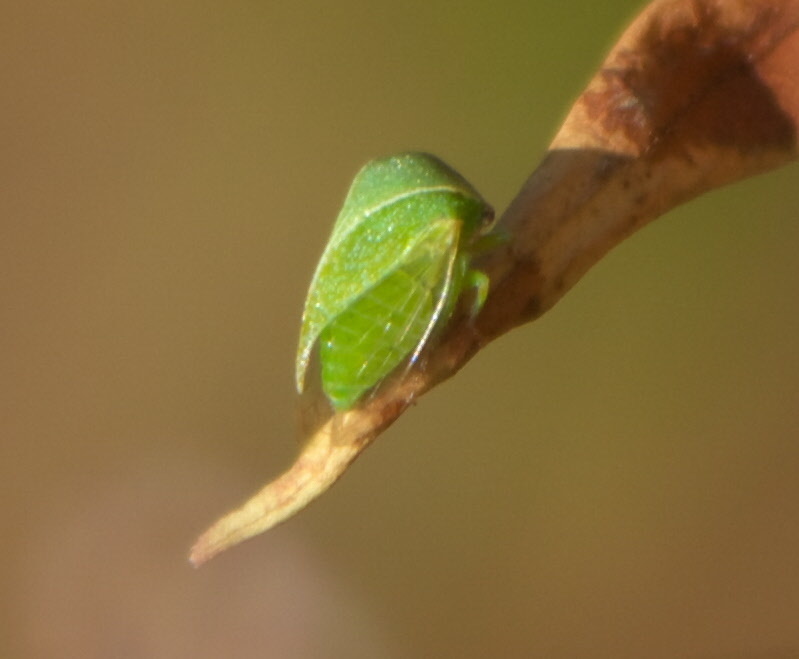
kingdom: Animalia
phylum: Arthropoda
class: Insecta
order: Hemiptera
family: Membracidae
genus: Spissistilus
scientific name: Spissistilus festina
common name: Membracid bug
